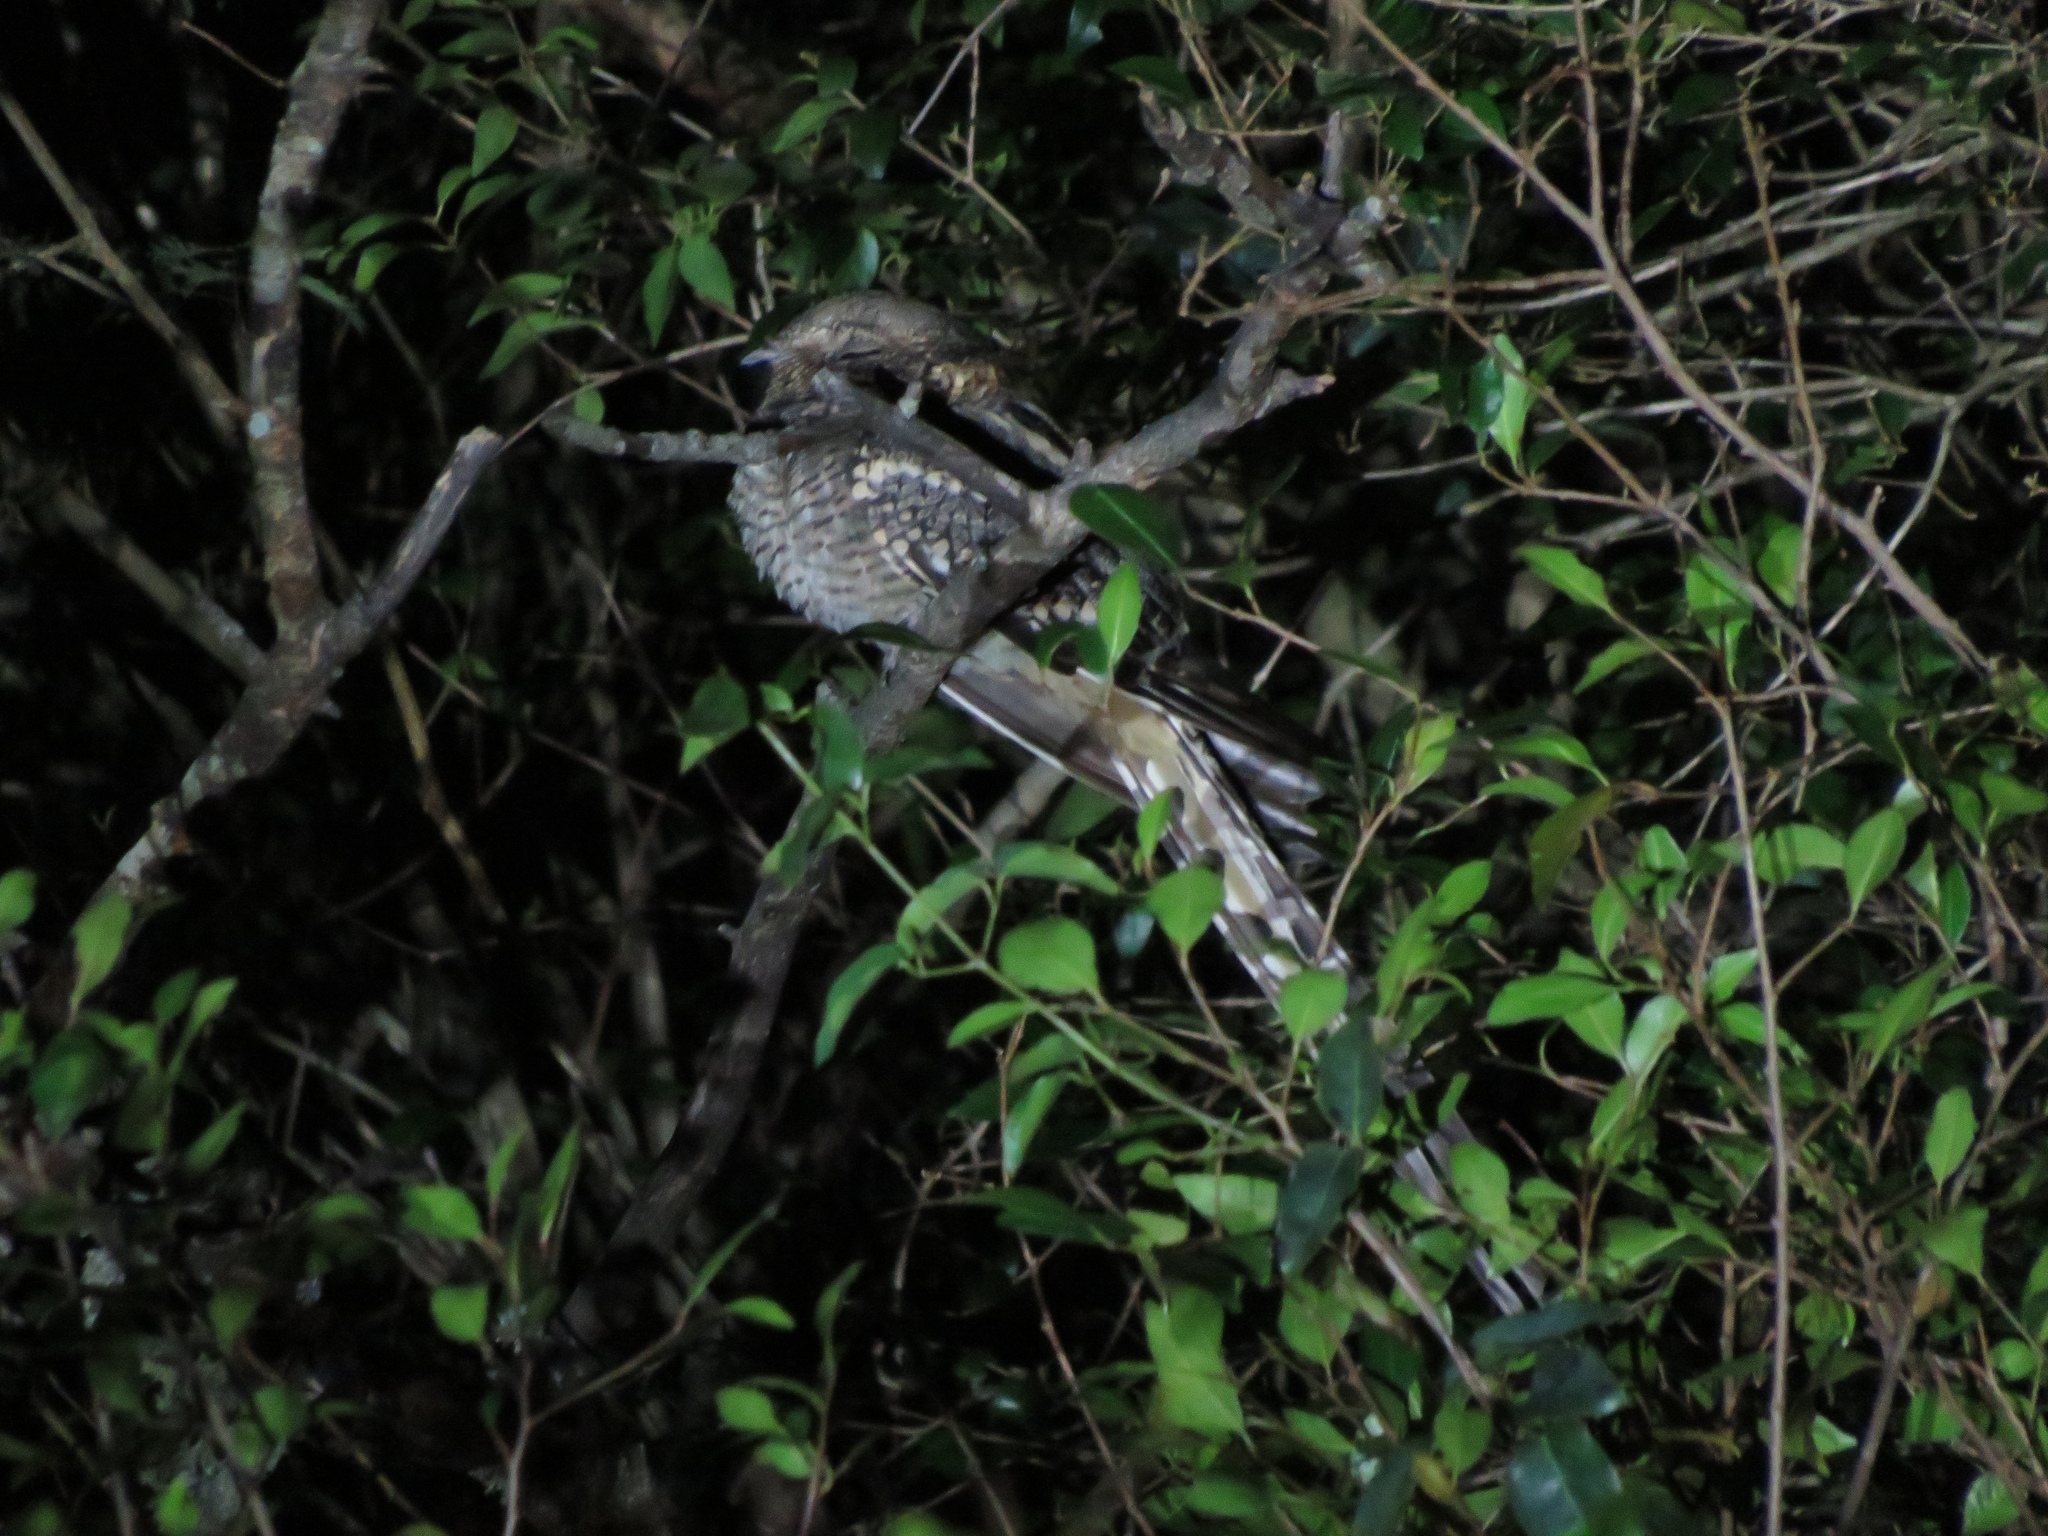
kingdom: Animalia
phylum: Chordata
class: Aves
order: Caprimulgiformes
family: Caprimulgidae
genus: Hydropsalis
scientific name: Hydropsalis torquata
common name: Scissor-tailed nightjar
